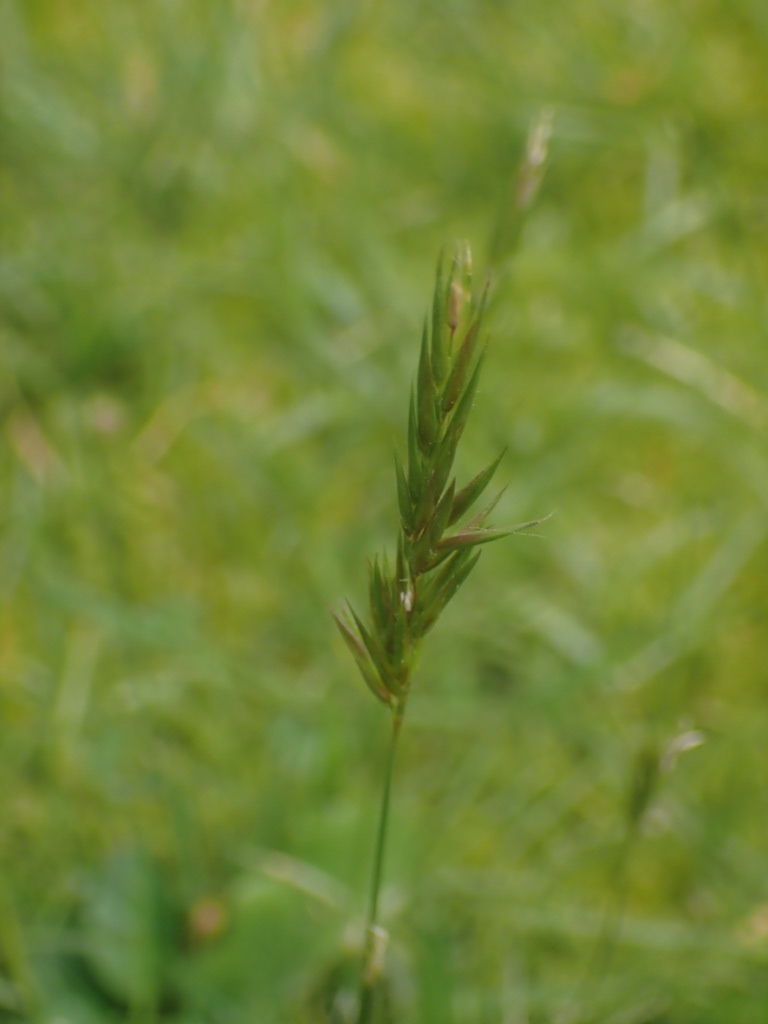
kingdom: Plantae
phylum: Tracheophyta
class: Liliopsida
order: Poales
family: Poaceae
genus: Anthoxanthum
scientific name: Anthoxanthum odoratum
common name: Sweet vernalgrass
